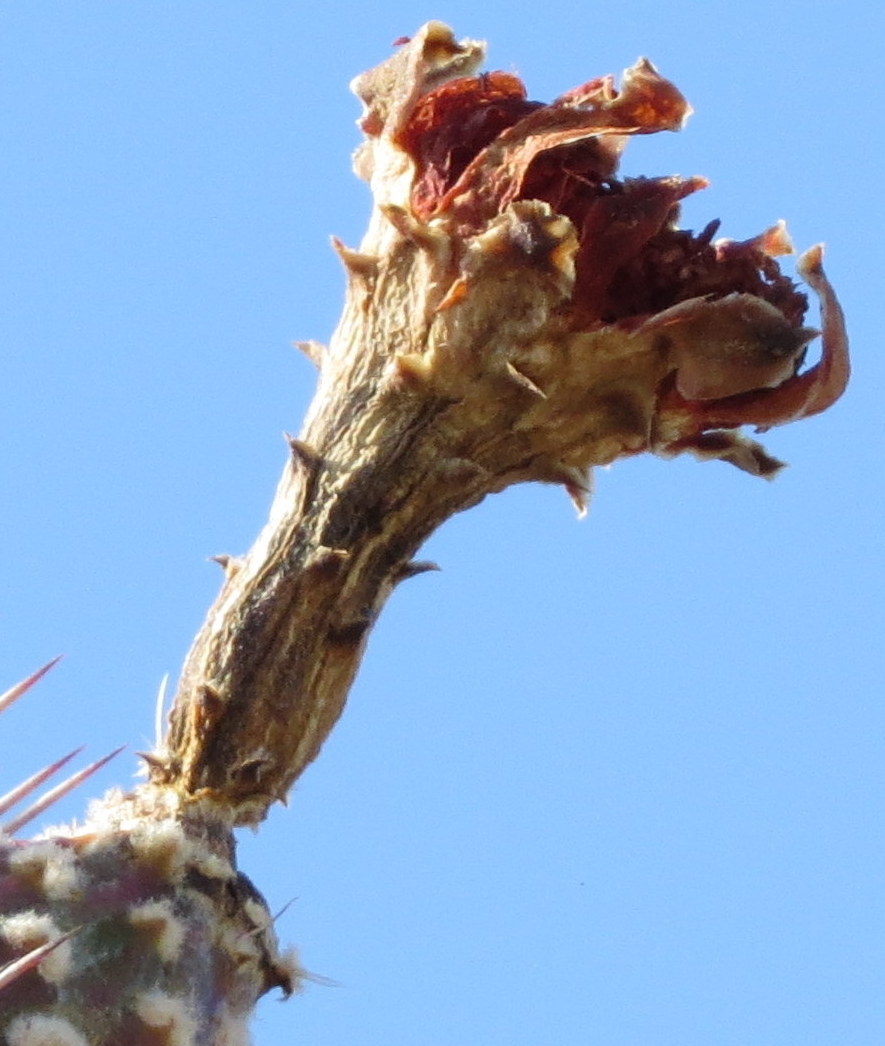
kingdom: Plantae
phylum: Tracheophyta
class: Magnoliopsida
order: Caryophyllales
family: Cactaceae
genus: Stenocereus
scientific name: Stenocereus heptagonus
